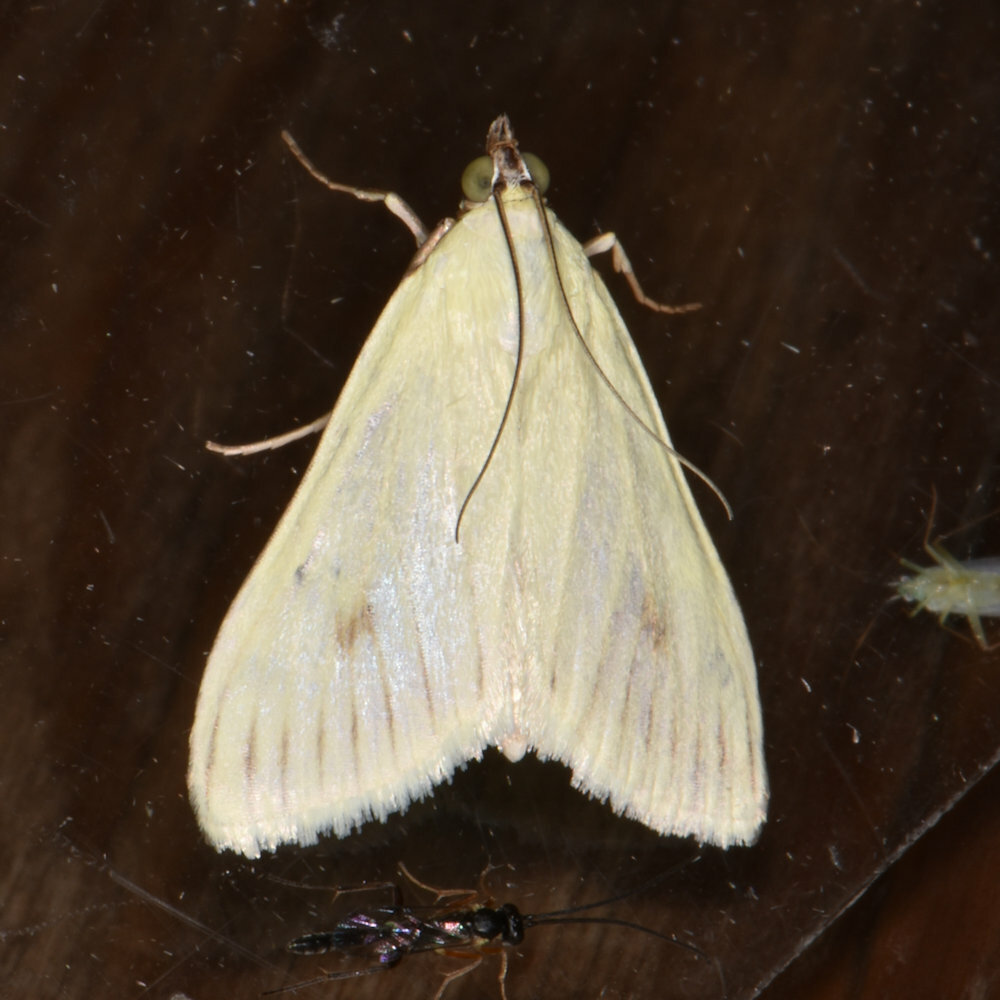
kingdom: Animalia
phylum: Arthropoda
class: Insecta
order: Lepidoptera
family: Crambidae
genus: Sitochroa
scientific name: Sitochroa palealis
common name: Greenish-yellow sitochroa moth
